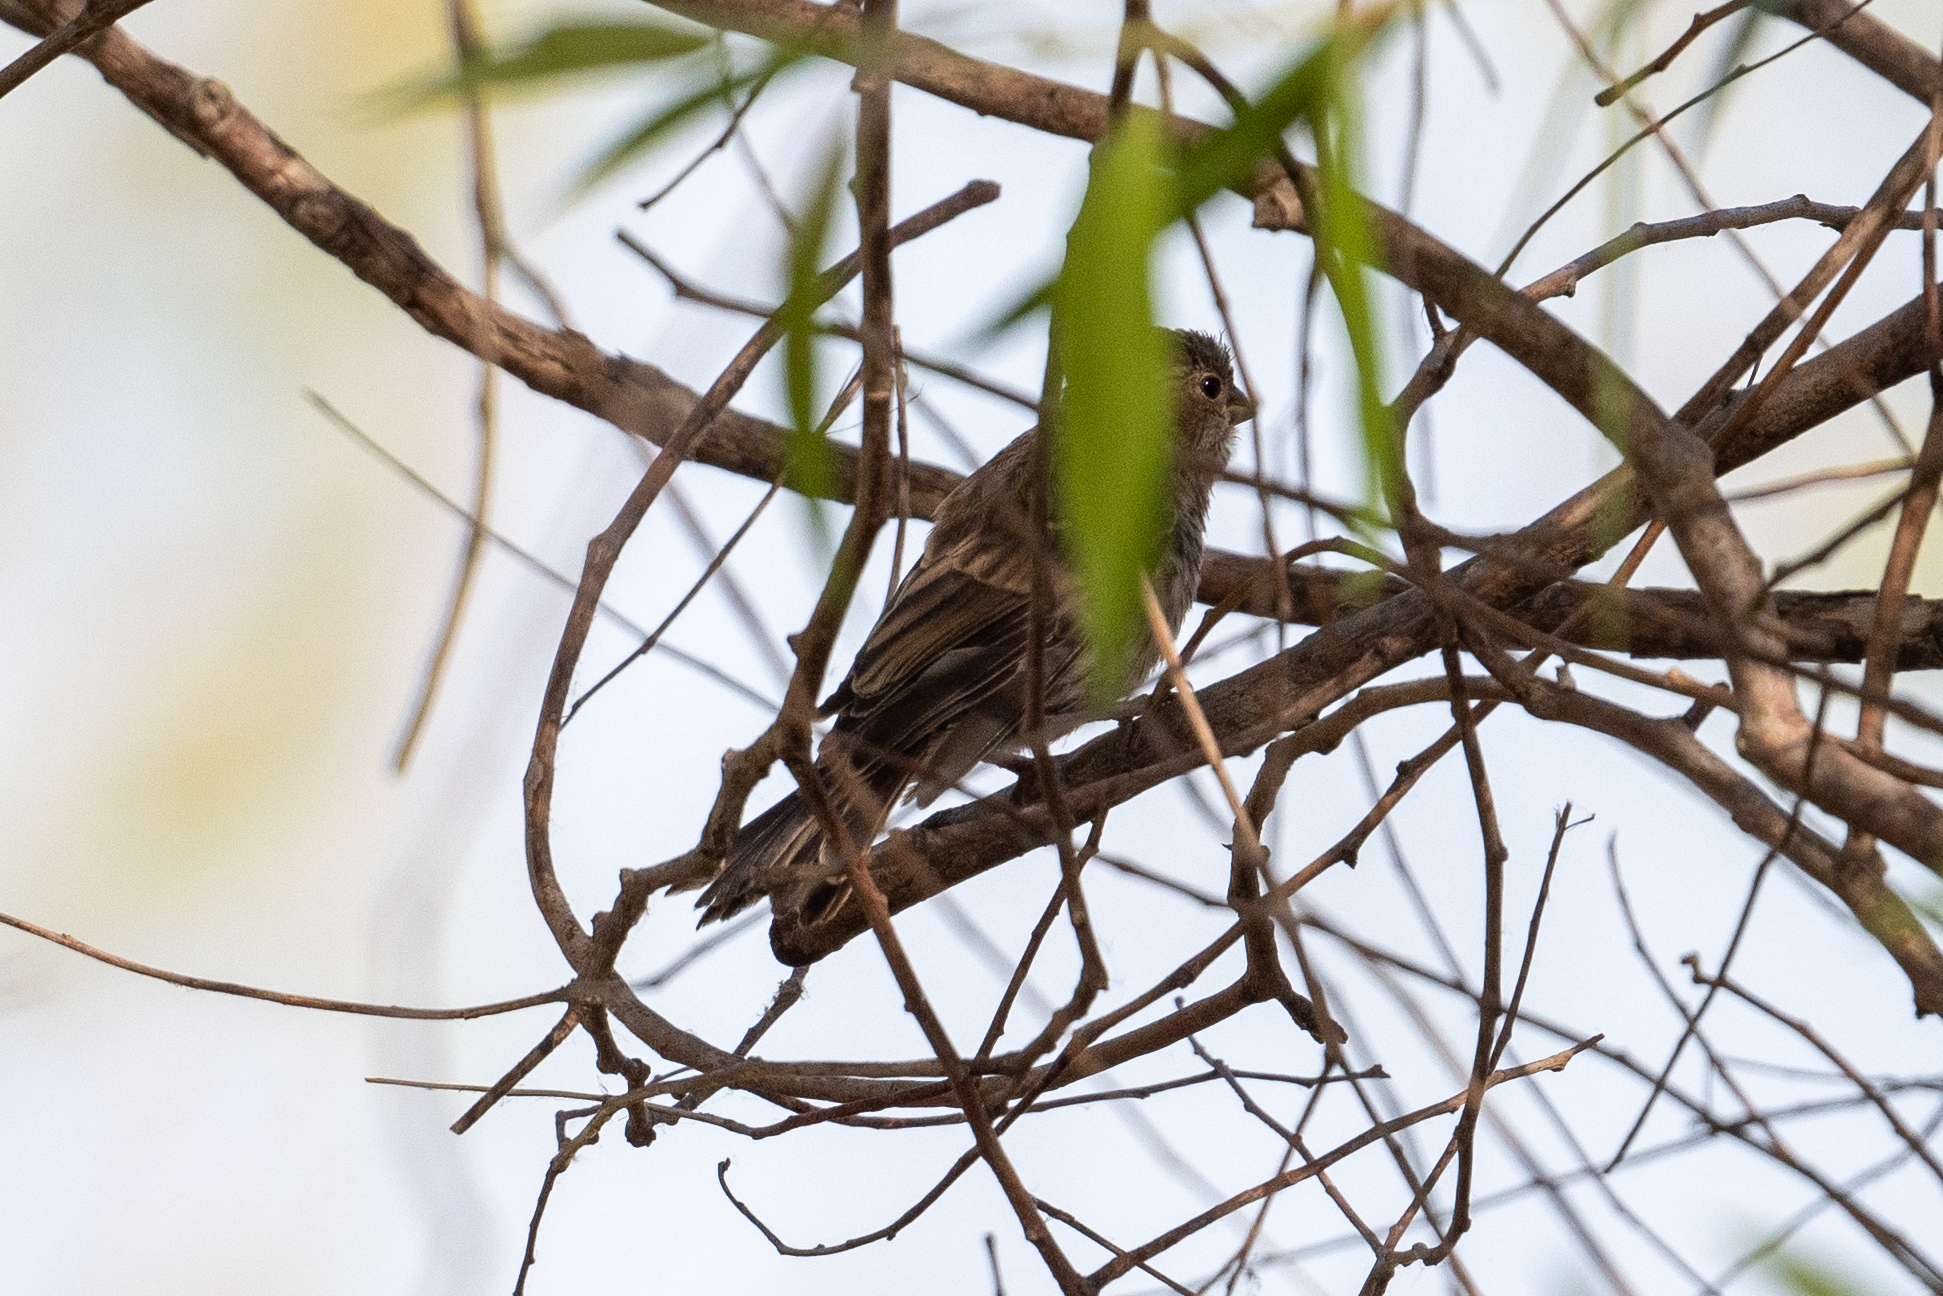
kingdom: Animalia
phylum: Chordata
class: Aves
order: Passeriformes
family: Fringillidae
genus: Haemorhous
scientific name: Haemorhous mexicanus
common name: House finch
